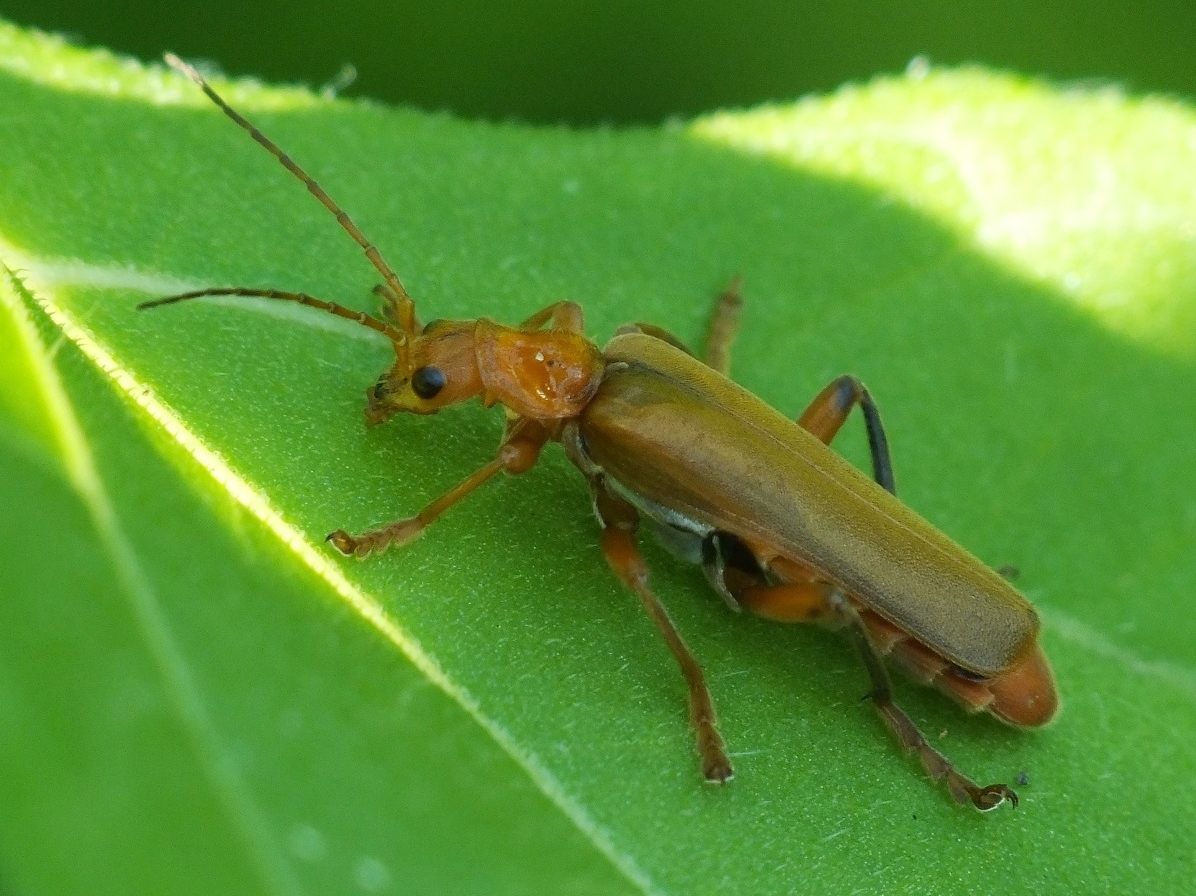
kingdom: Animalia
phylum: Arthropoda
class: Insecta
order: Coleoptera
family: Cantharidae
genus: Cantharis
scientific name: Cantharis livida
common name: Livid soldier beetle
